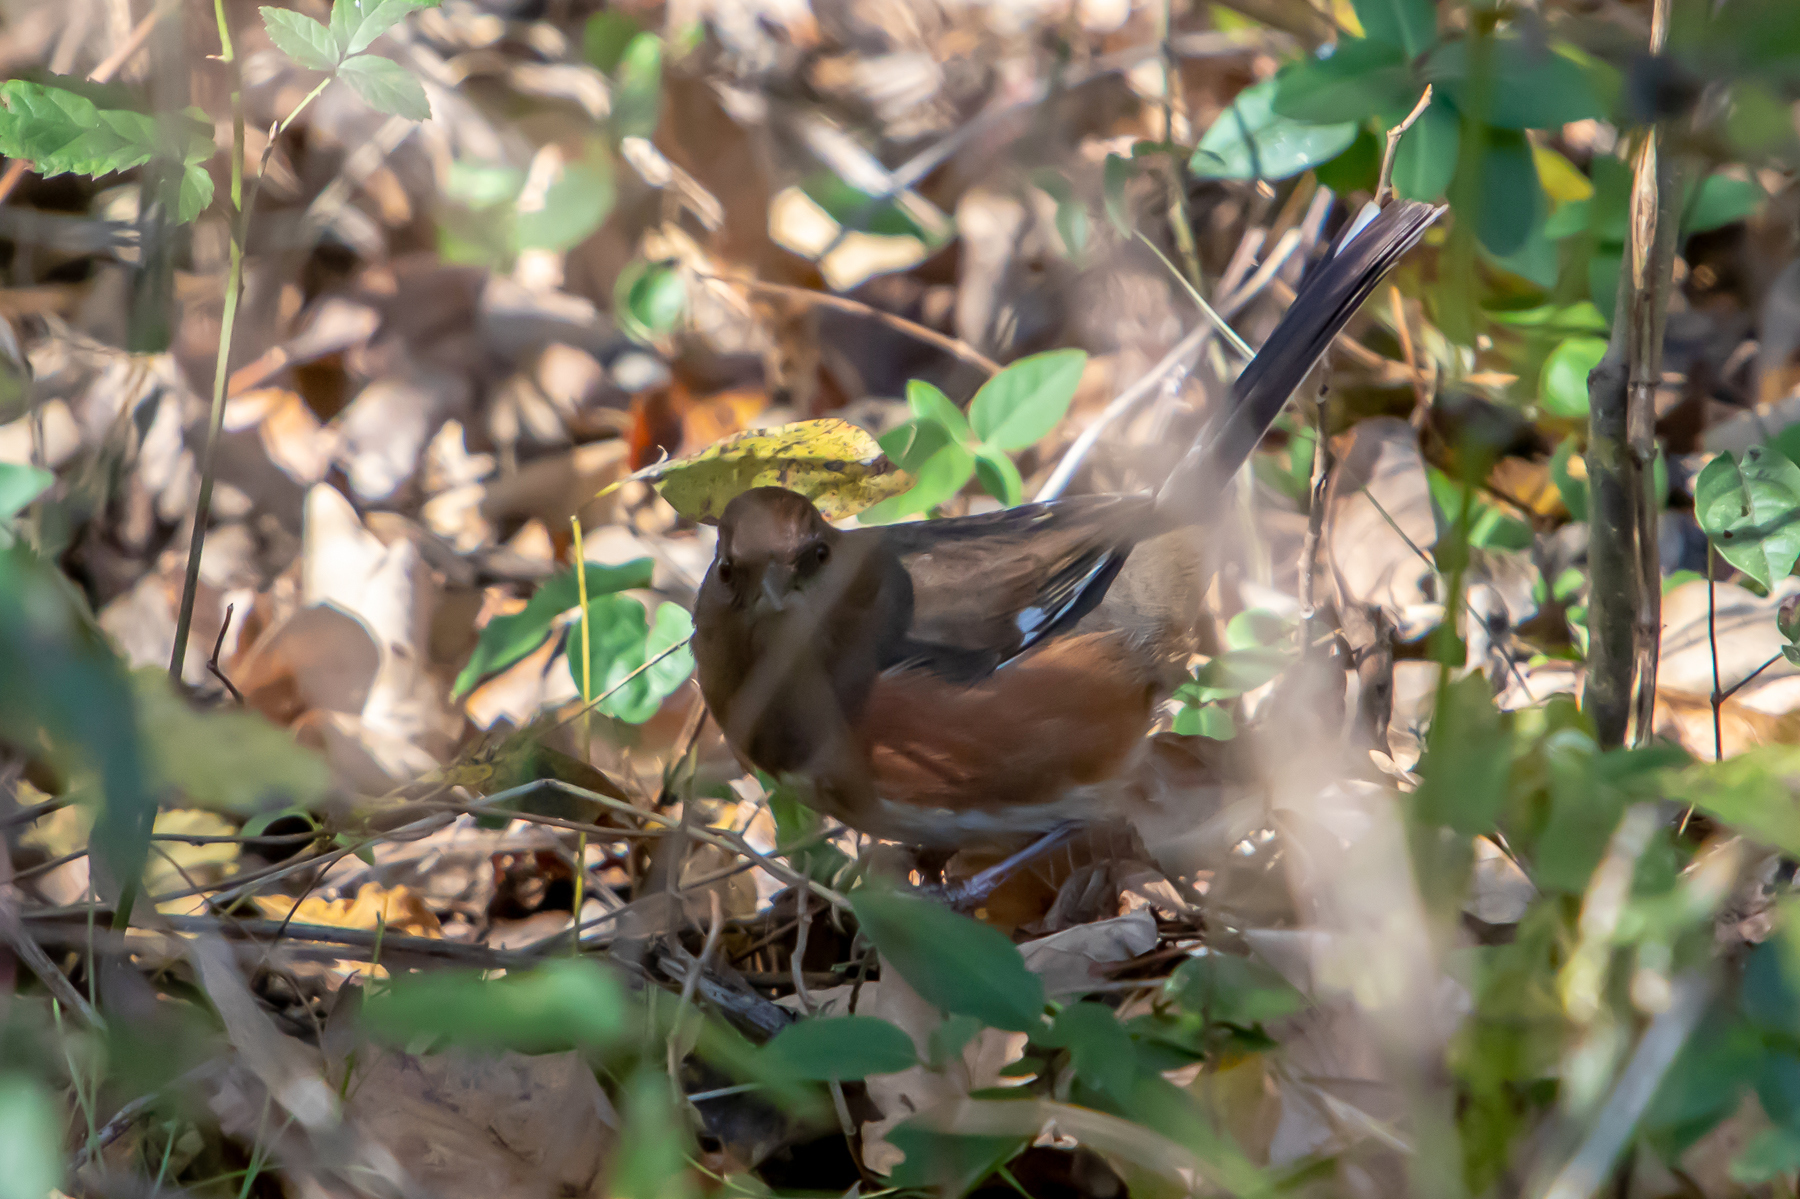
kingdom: Animalia
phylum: Chordata
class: Aves
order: Passeriformes
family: Passerellidae
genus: Pipilo
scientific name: Pipilo erythrophthalmus
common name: Eastern towhee
